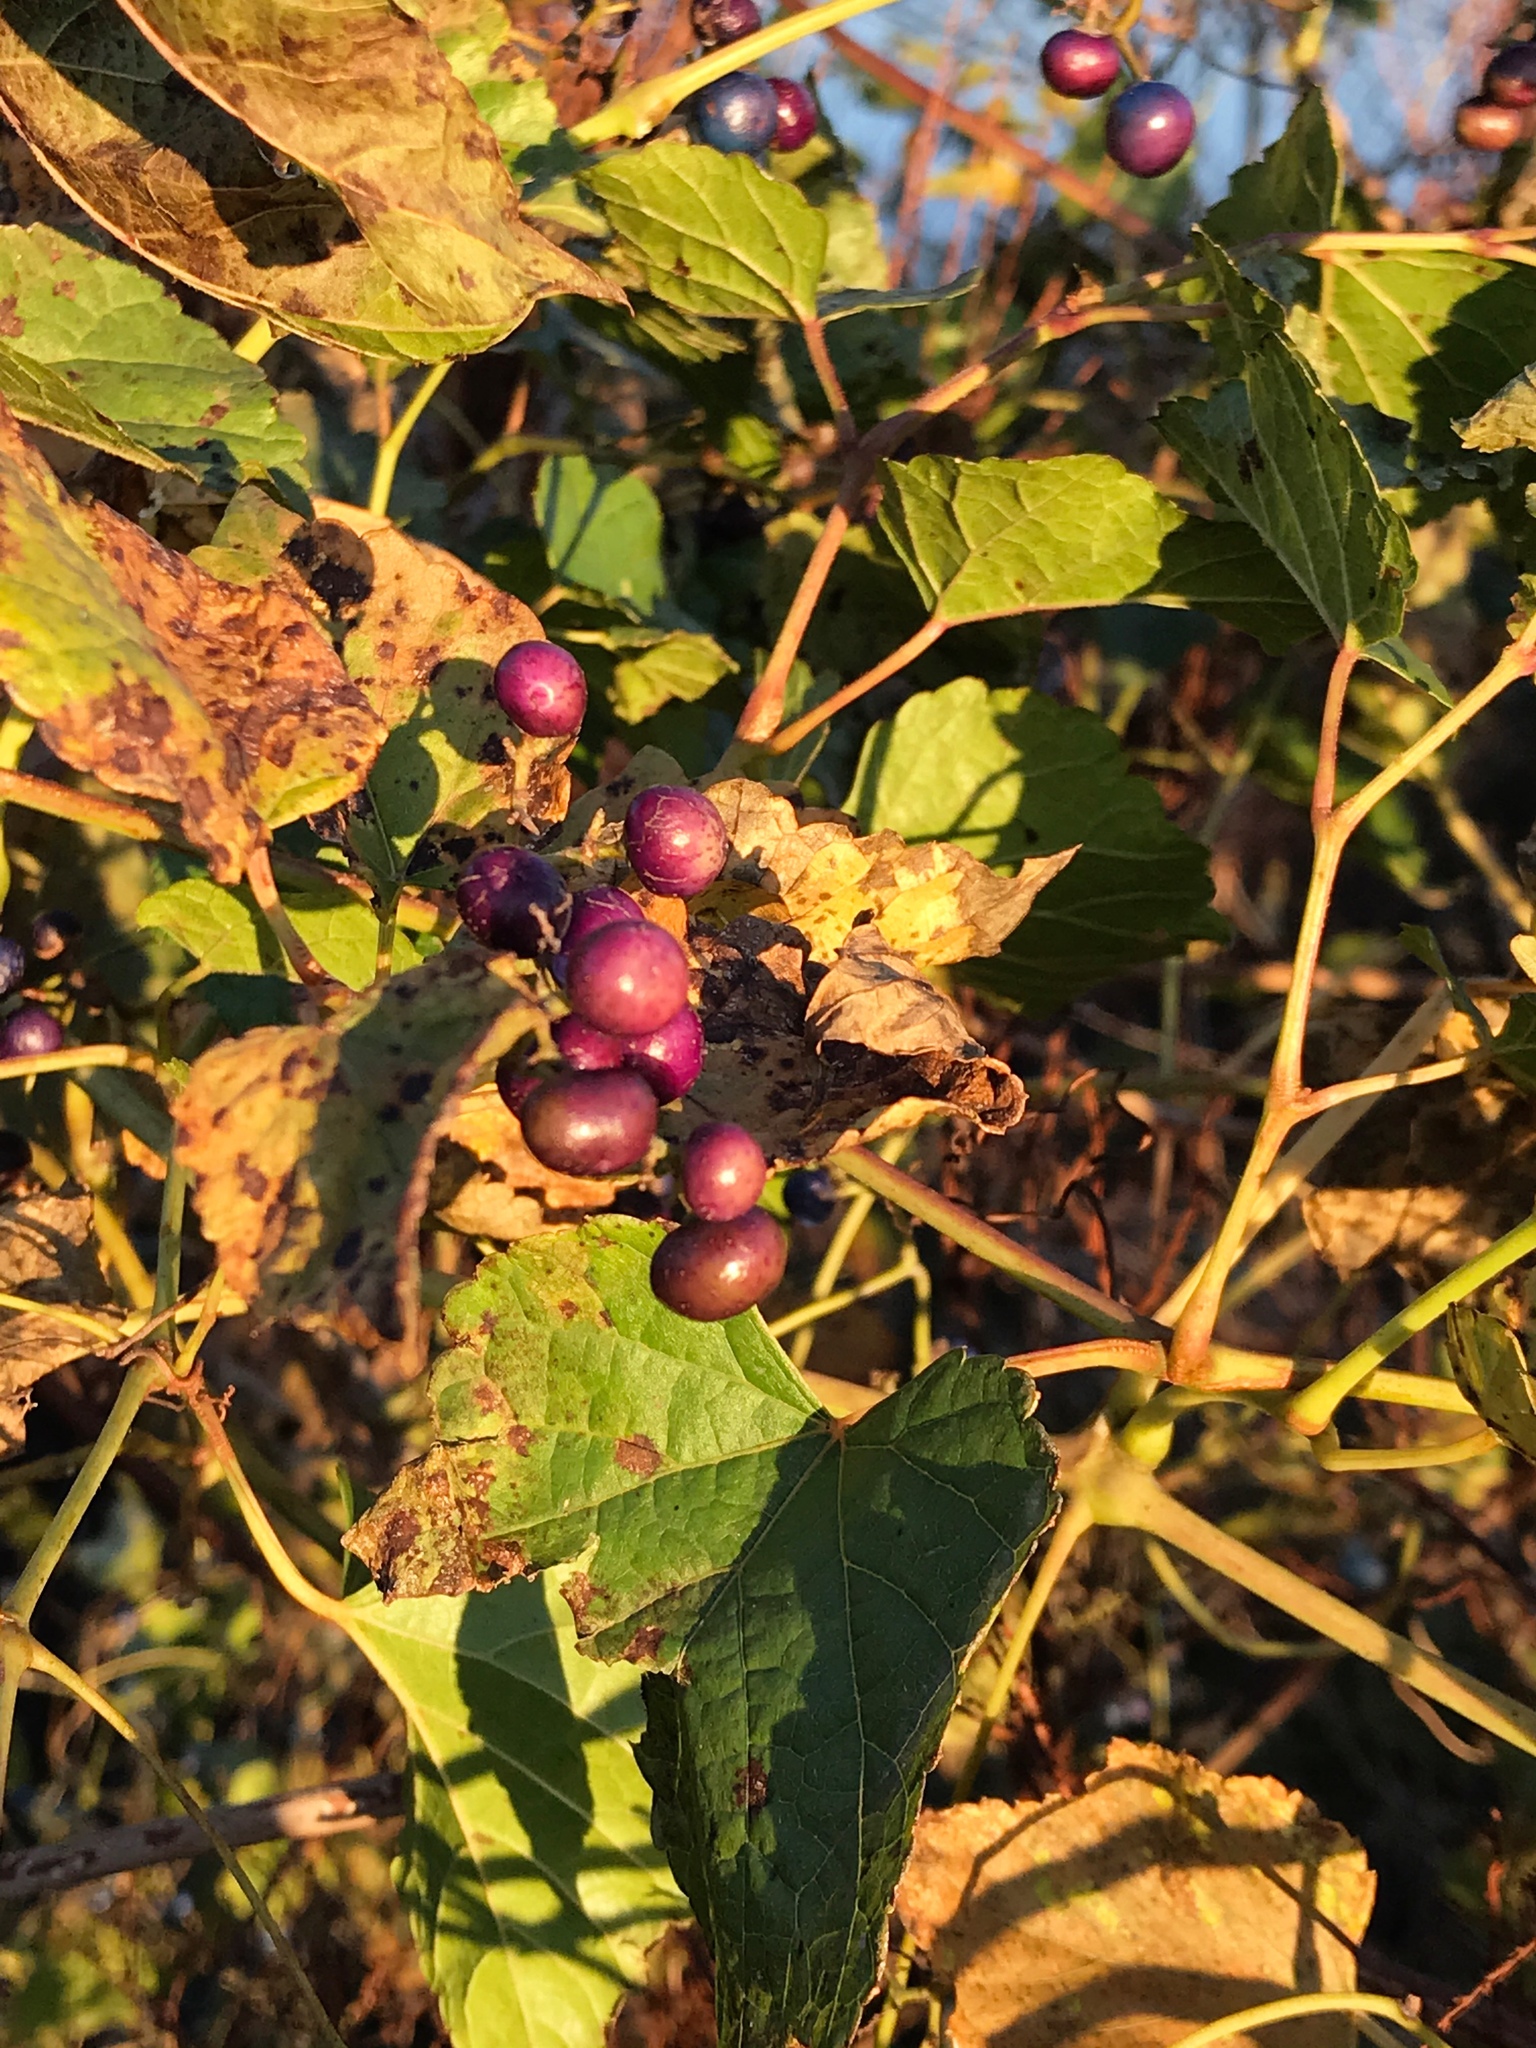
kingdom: Plantae
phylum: Tracheophyta
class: Magnoliopsida
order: Vitales
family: Vitaceae
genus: Ampelopsis
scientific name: Ampelopsis glandulosa
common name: Amur peppervine
